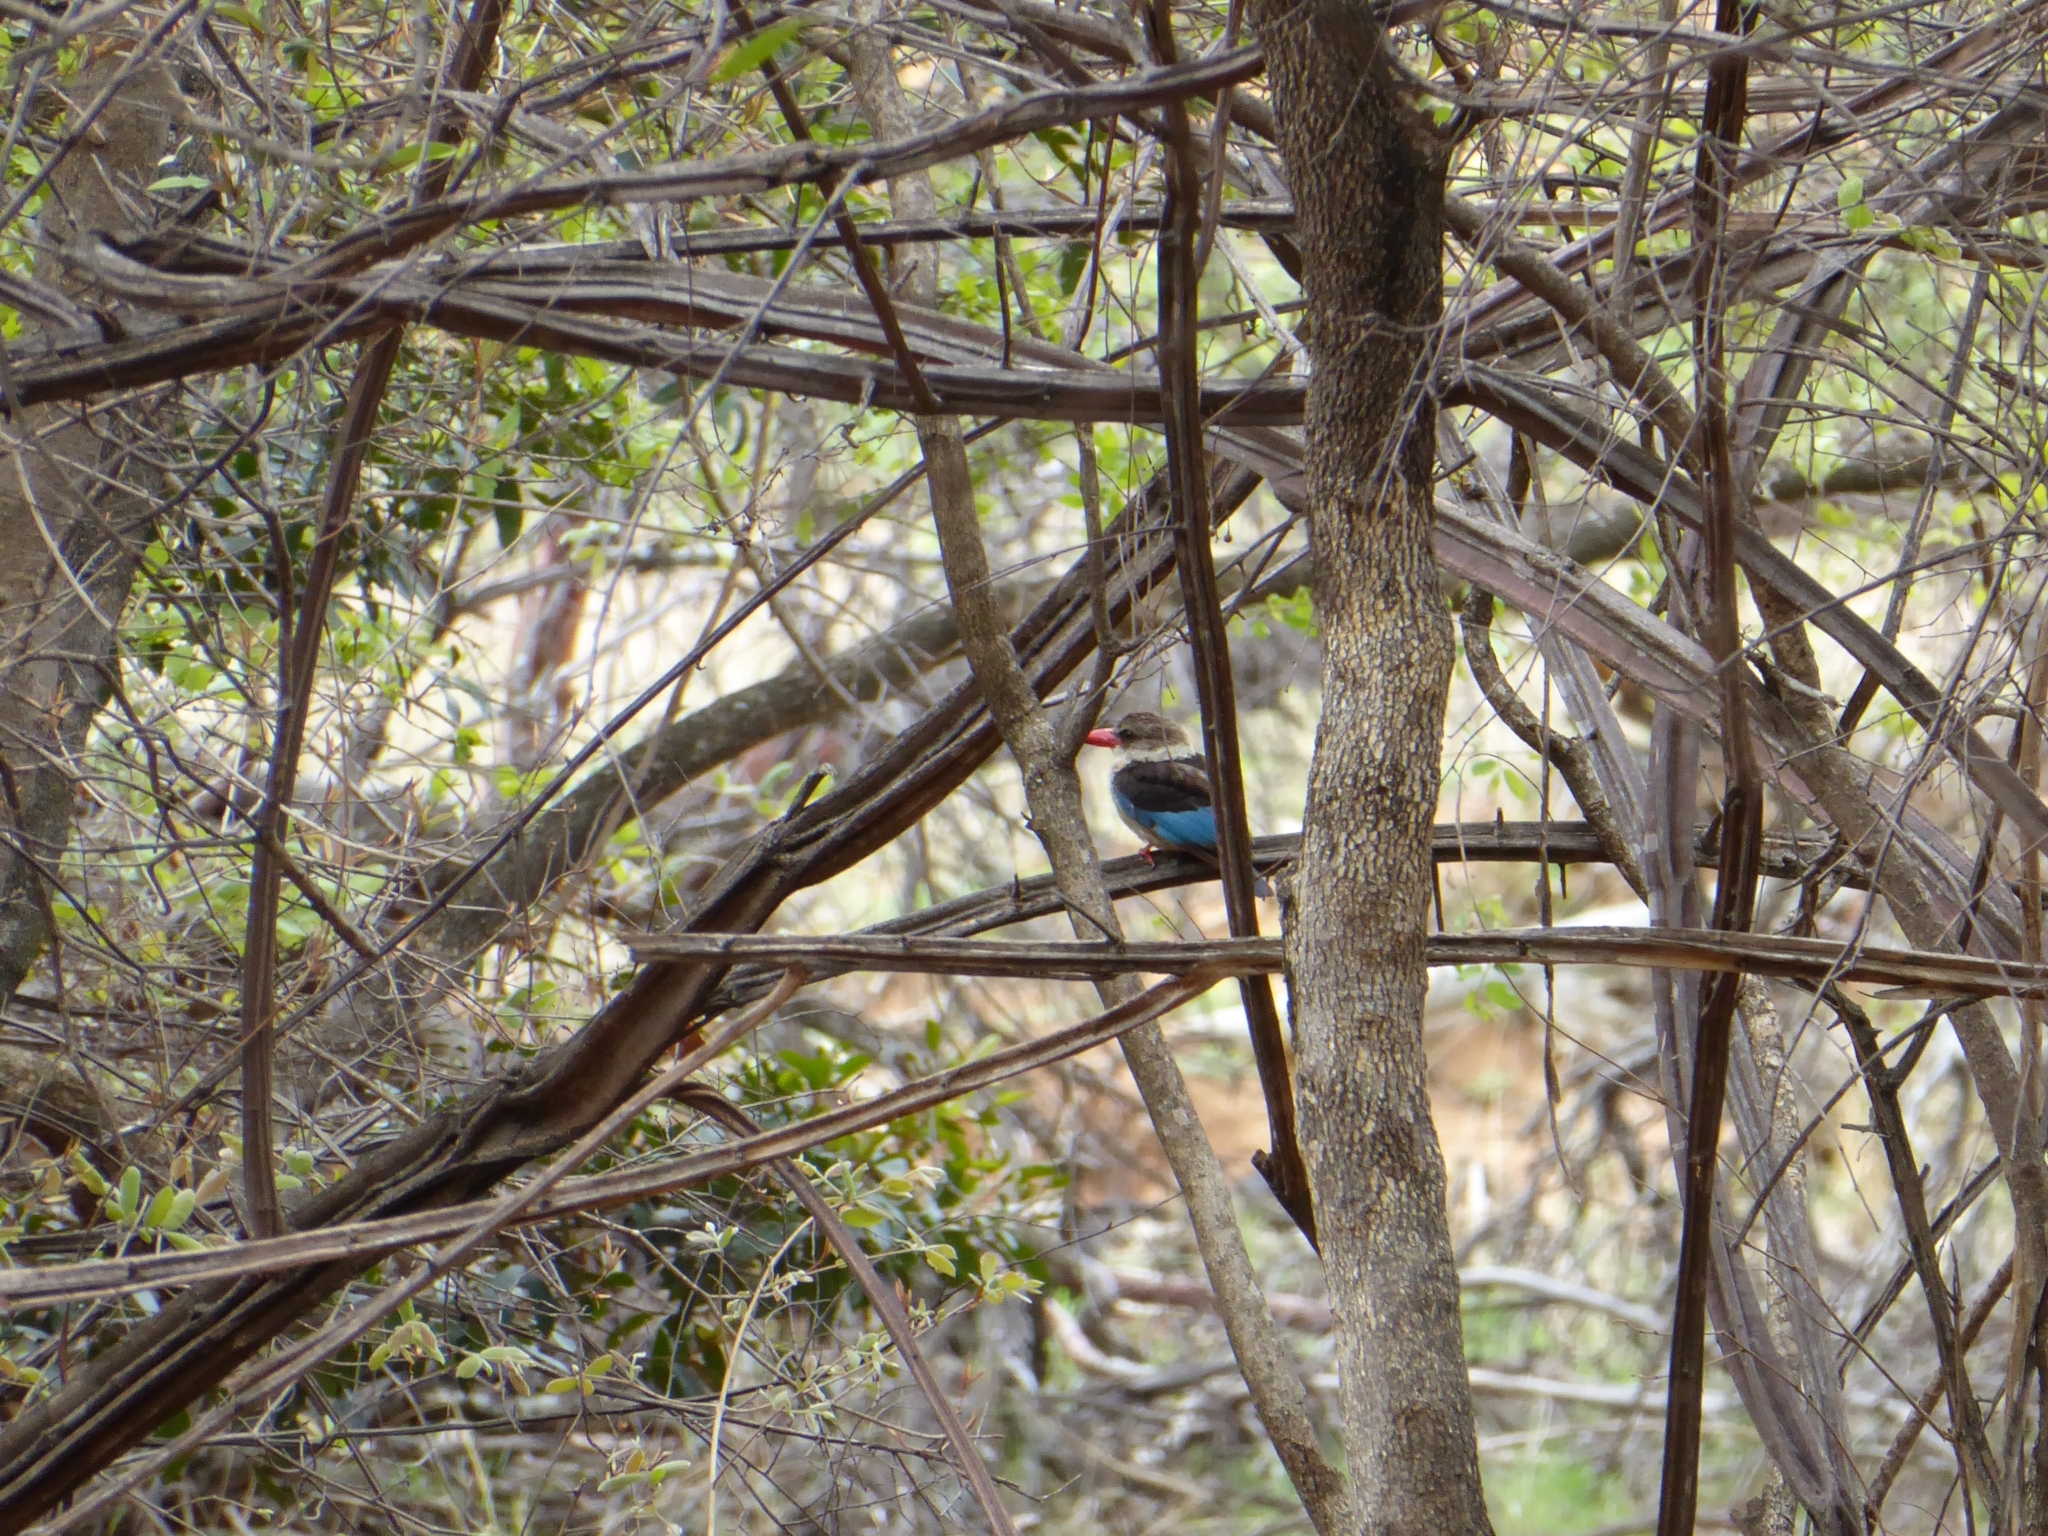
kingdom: Animalia
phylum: Chordata
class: Aves
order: Coraciiformes
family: Alcedinidae
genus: Halcyon
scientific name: Halcyon albiventris
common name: Brown-hooded kingfisher
